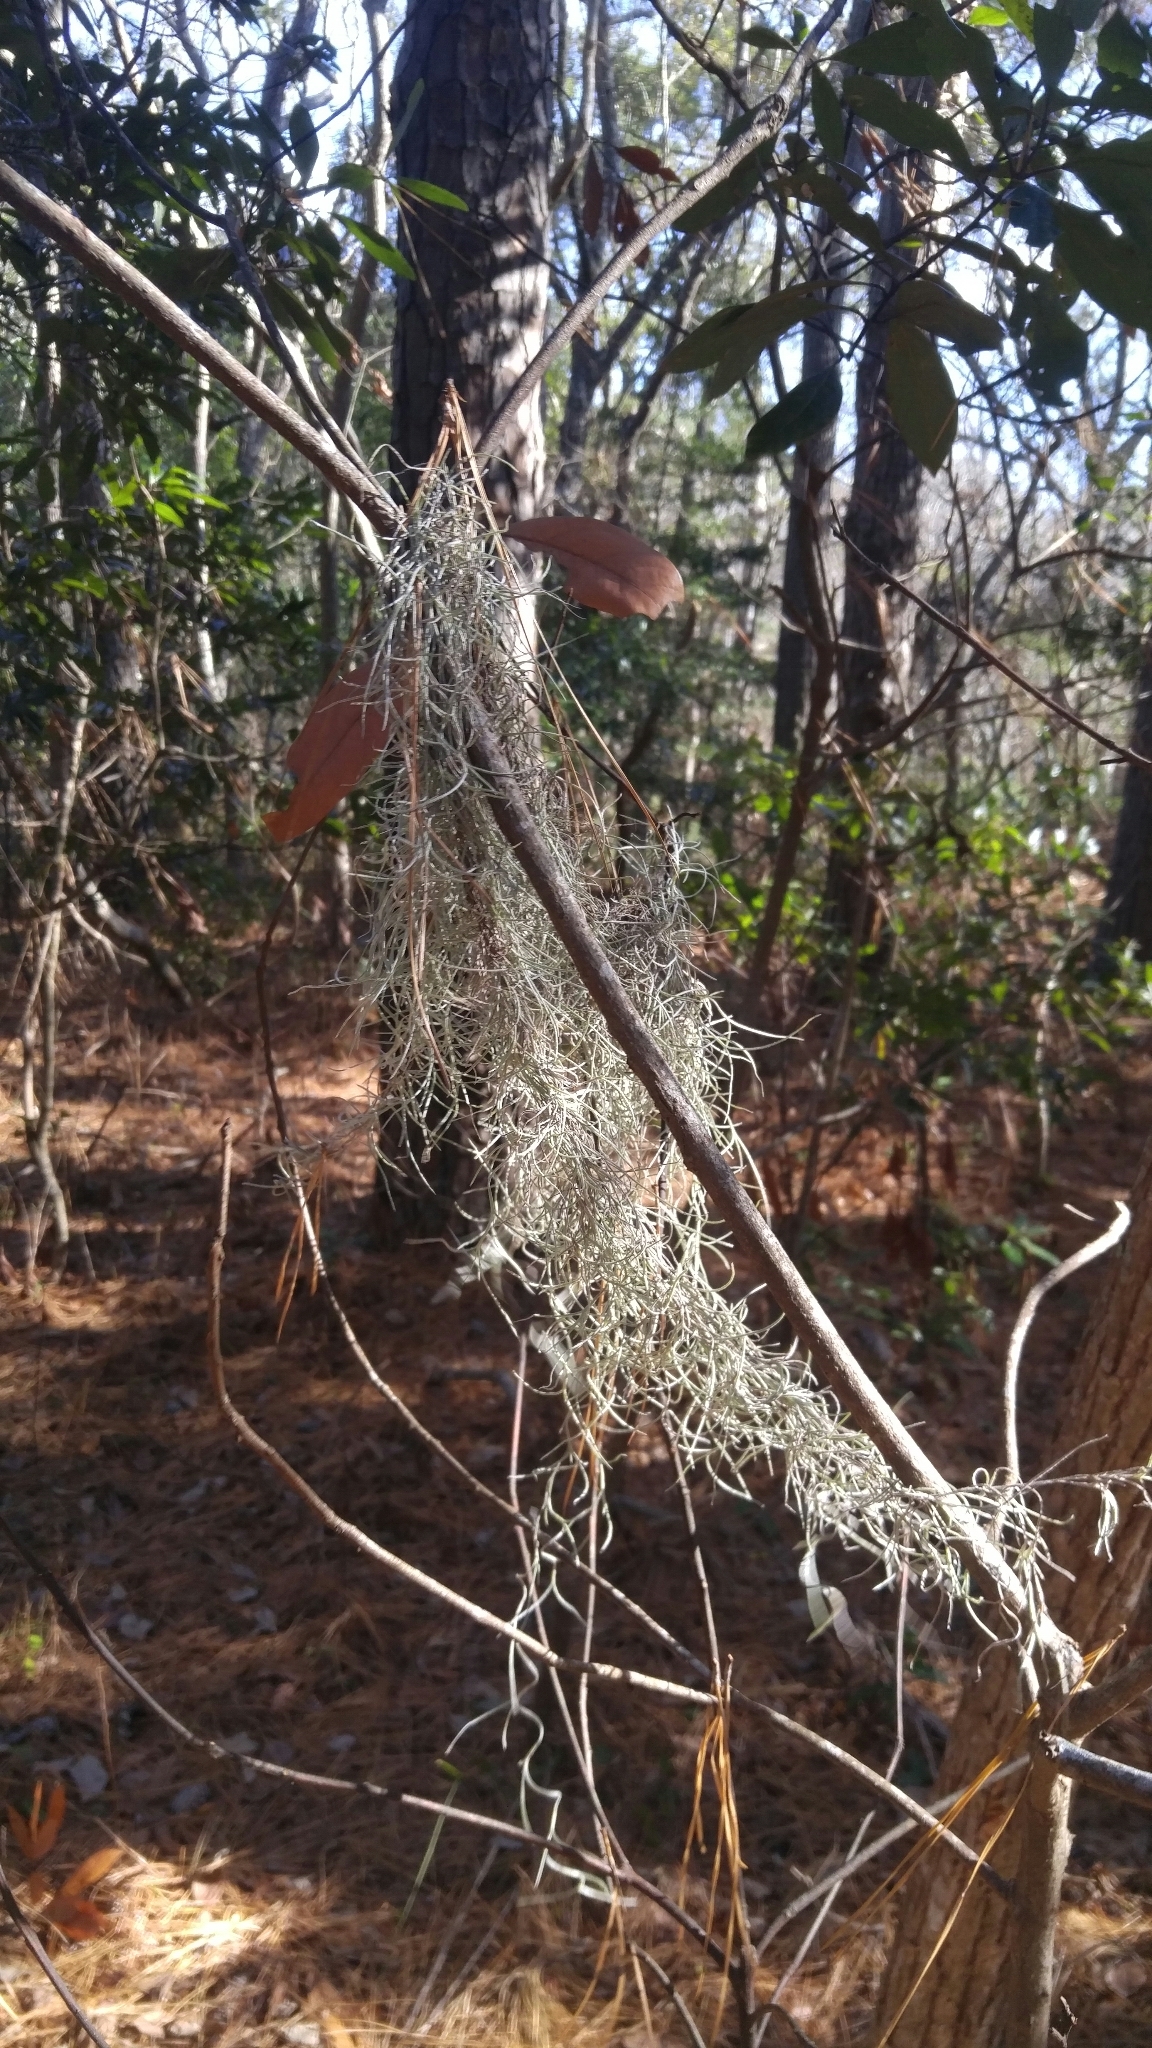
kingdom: Plantae
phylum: Tracheophyta
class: Liliopsida
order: Poales
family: Bromeliaceae
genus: Tillandsia
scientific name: Tillandsia usneoides
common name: Spanish moss
